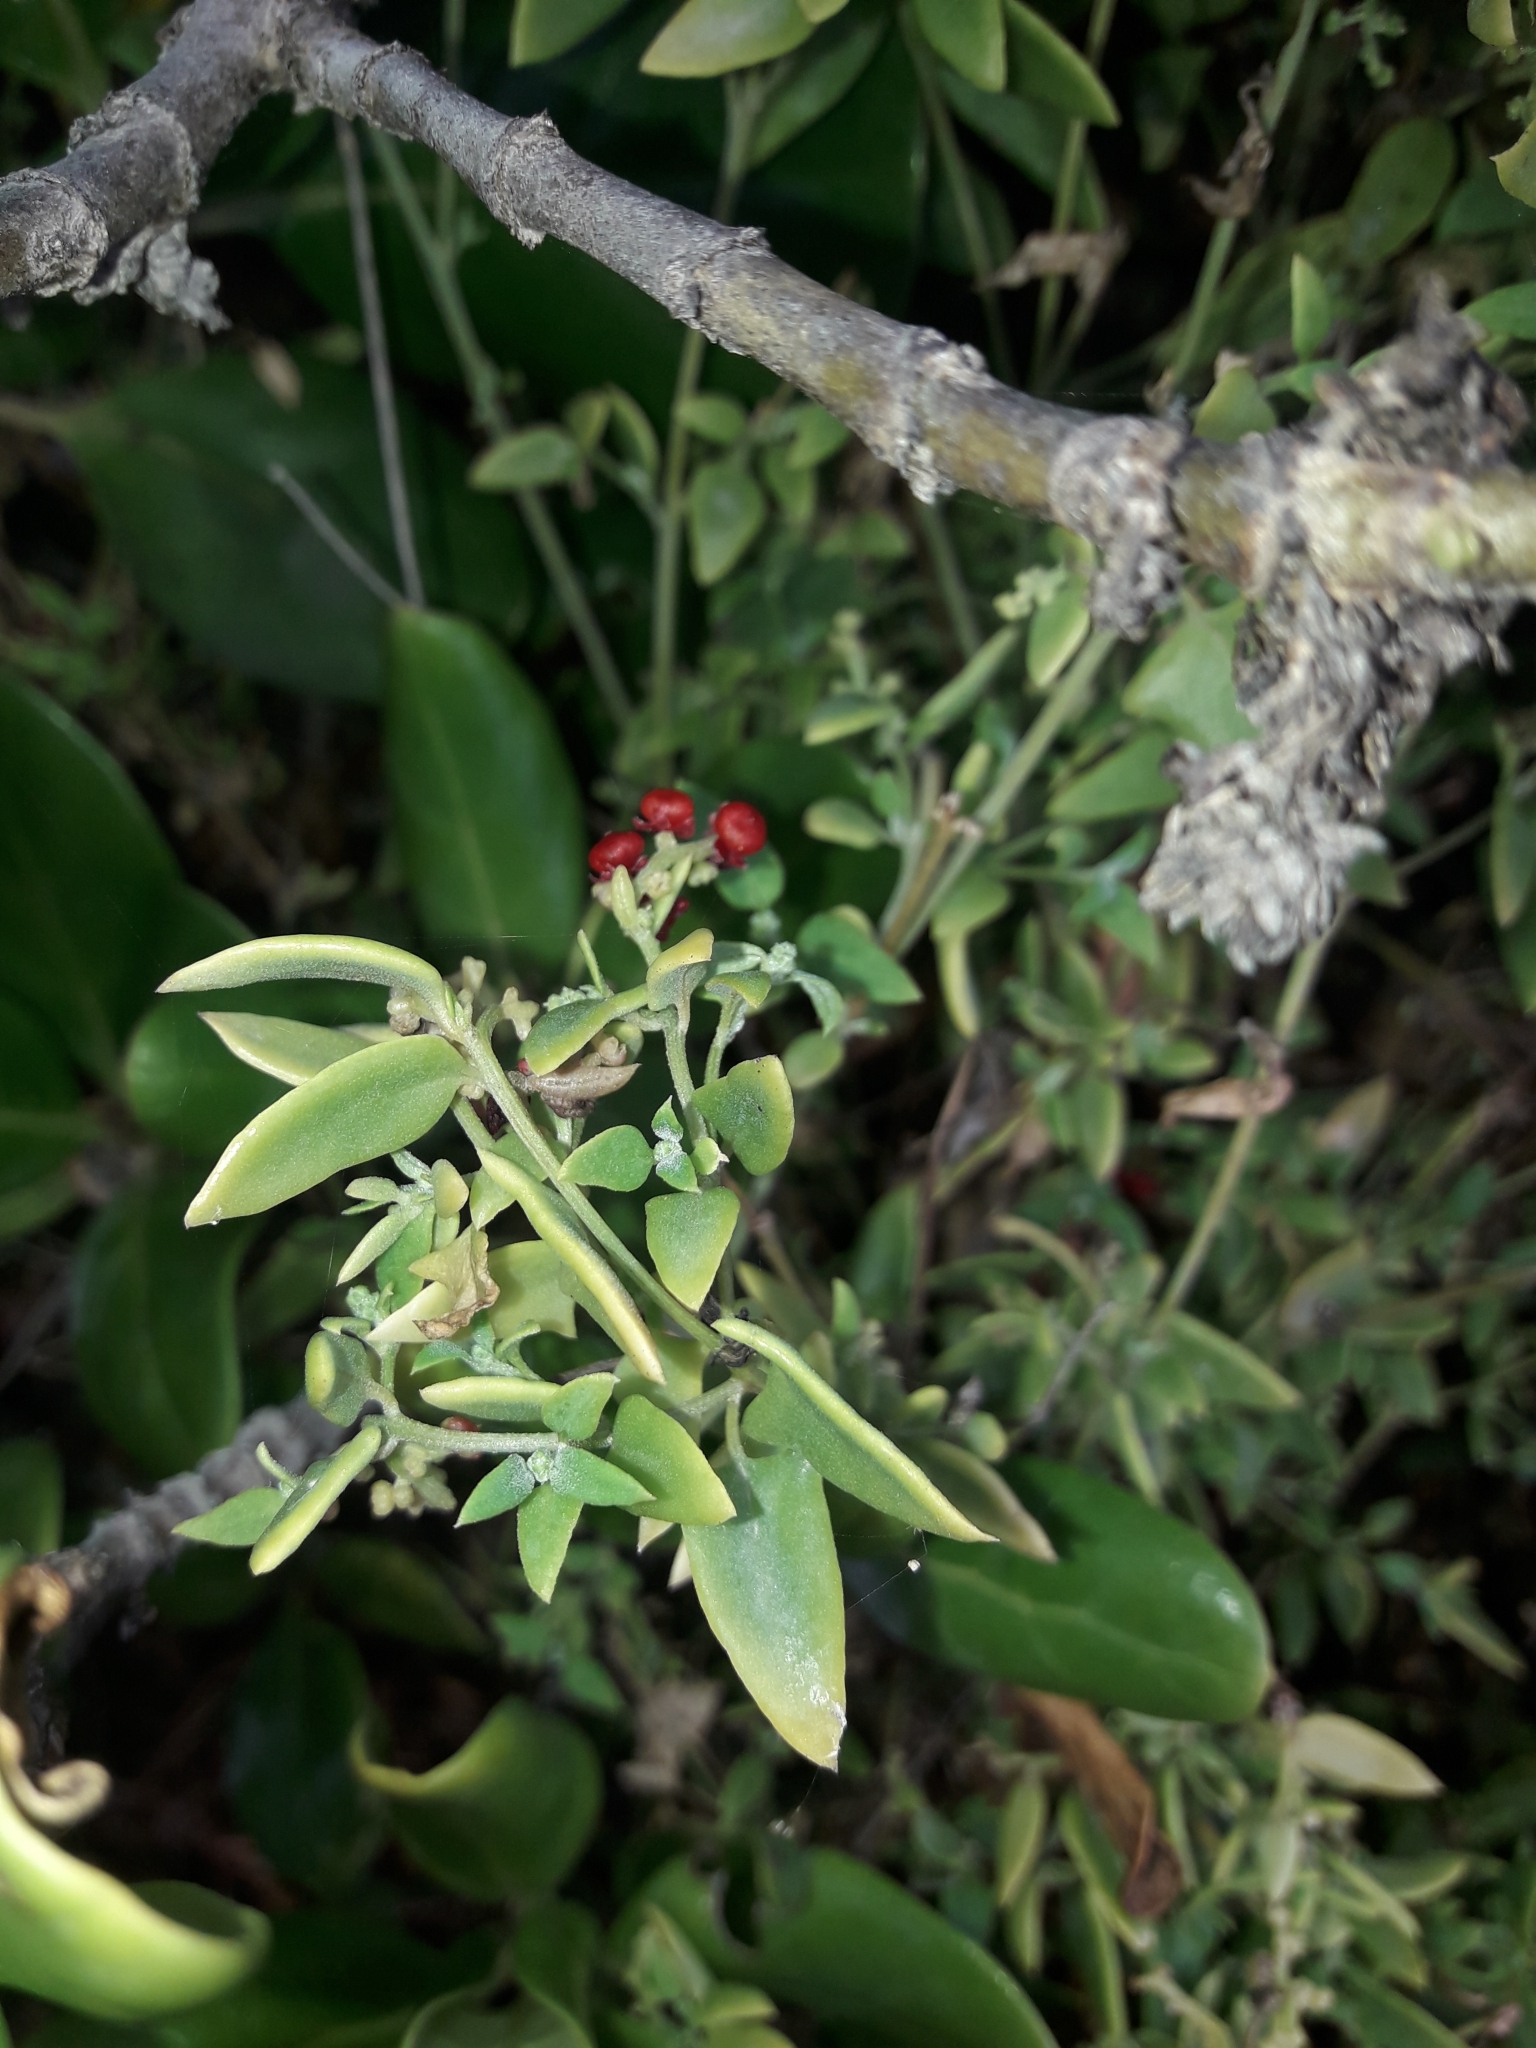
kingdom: Plantae
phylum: Tracheophyta
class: Magnoliopsida
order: Caryophyllales
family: Amaranthaceae
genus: Chenopodium
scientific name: Chenopodium nutans
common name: Climbing-saltbush
